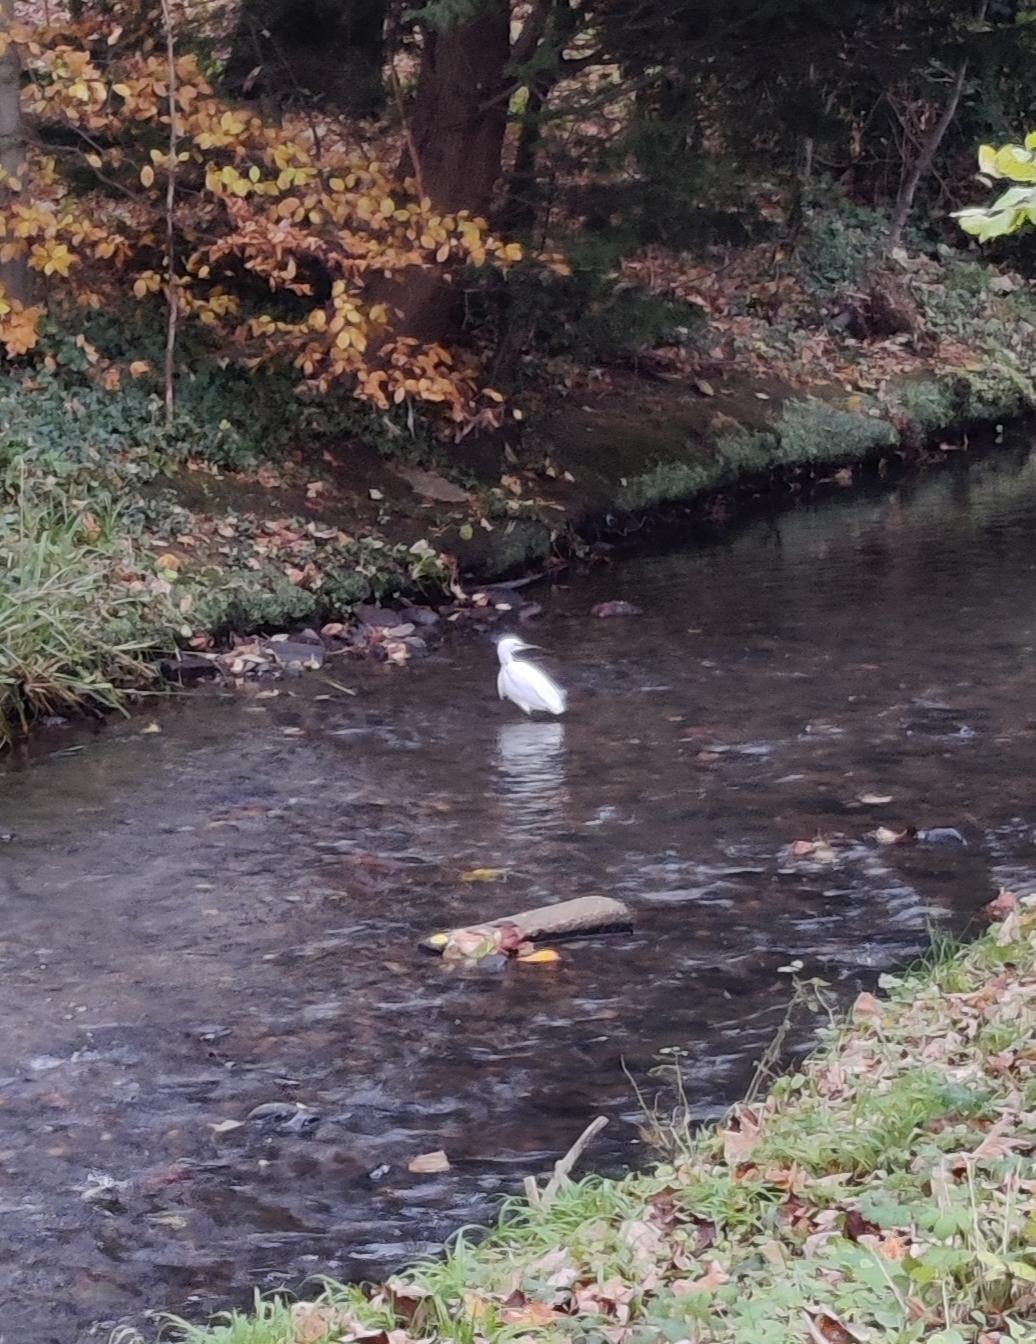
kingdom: Animalia
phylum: Chordata
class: Aves
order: Pelecaniformes
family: Ardeidae
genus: Egretta
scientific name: Egretta garzetta
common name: Little egret
